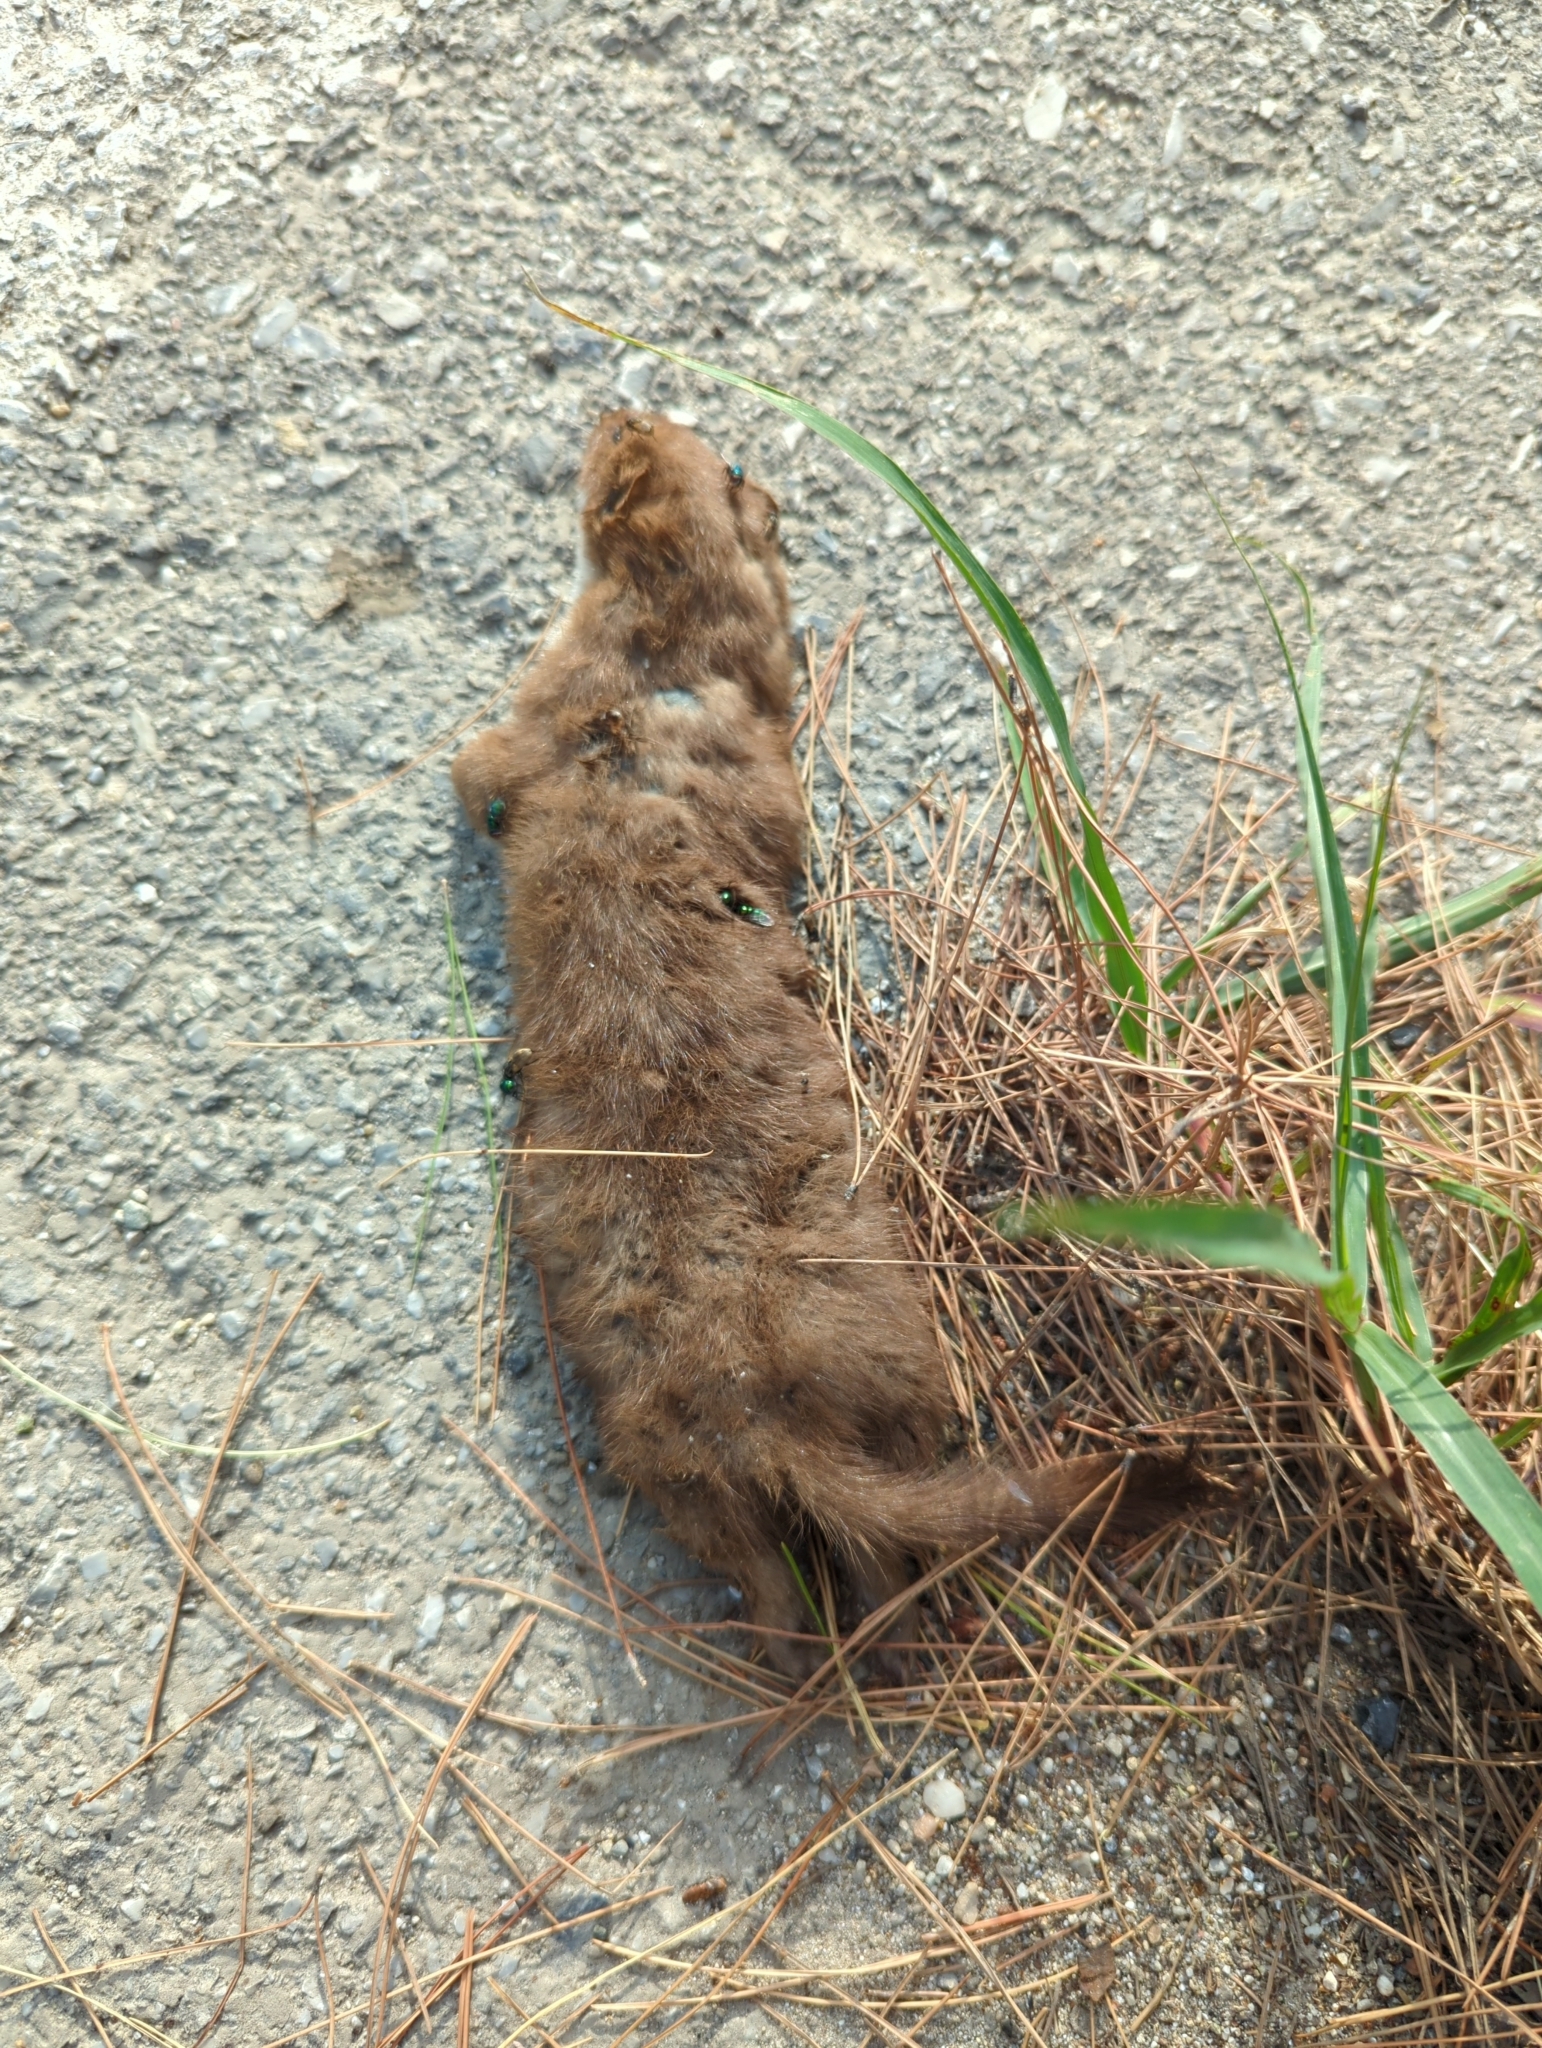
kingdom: Animalia
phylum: Chordata
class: Mammalia
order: Carnivora
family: Mustelidae
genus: Mustela
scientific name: Mustela nivalis
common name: Least weasel
